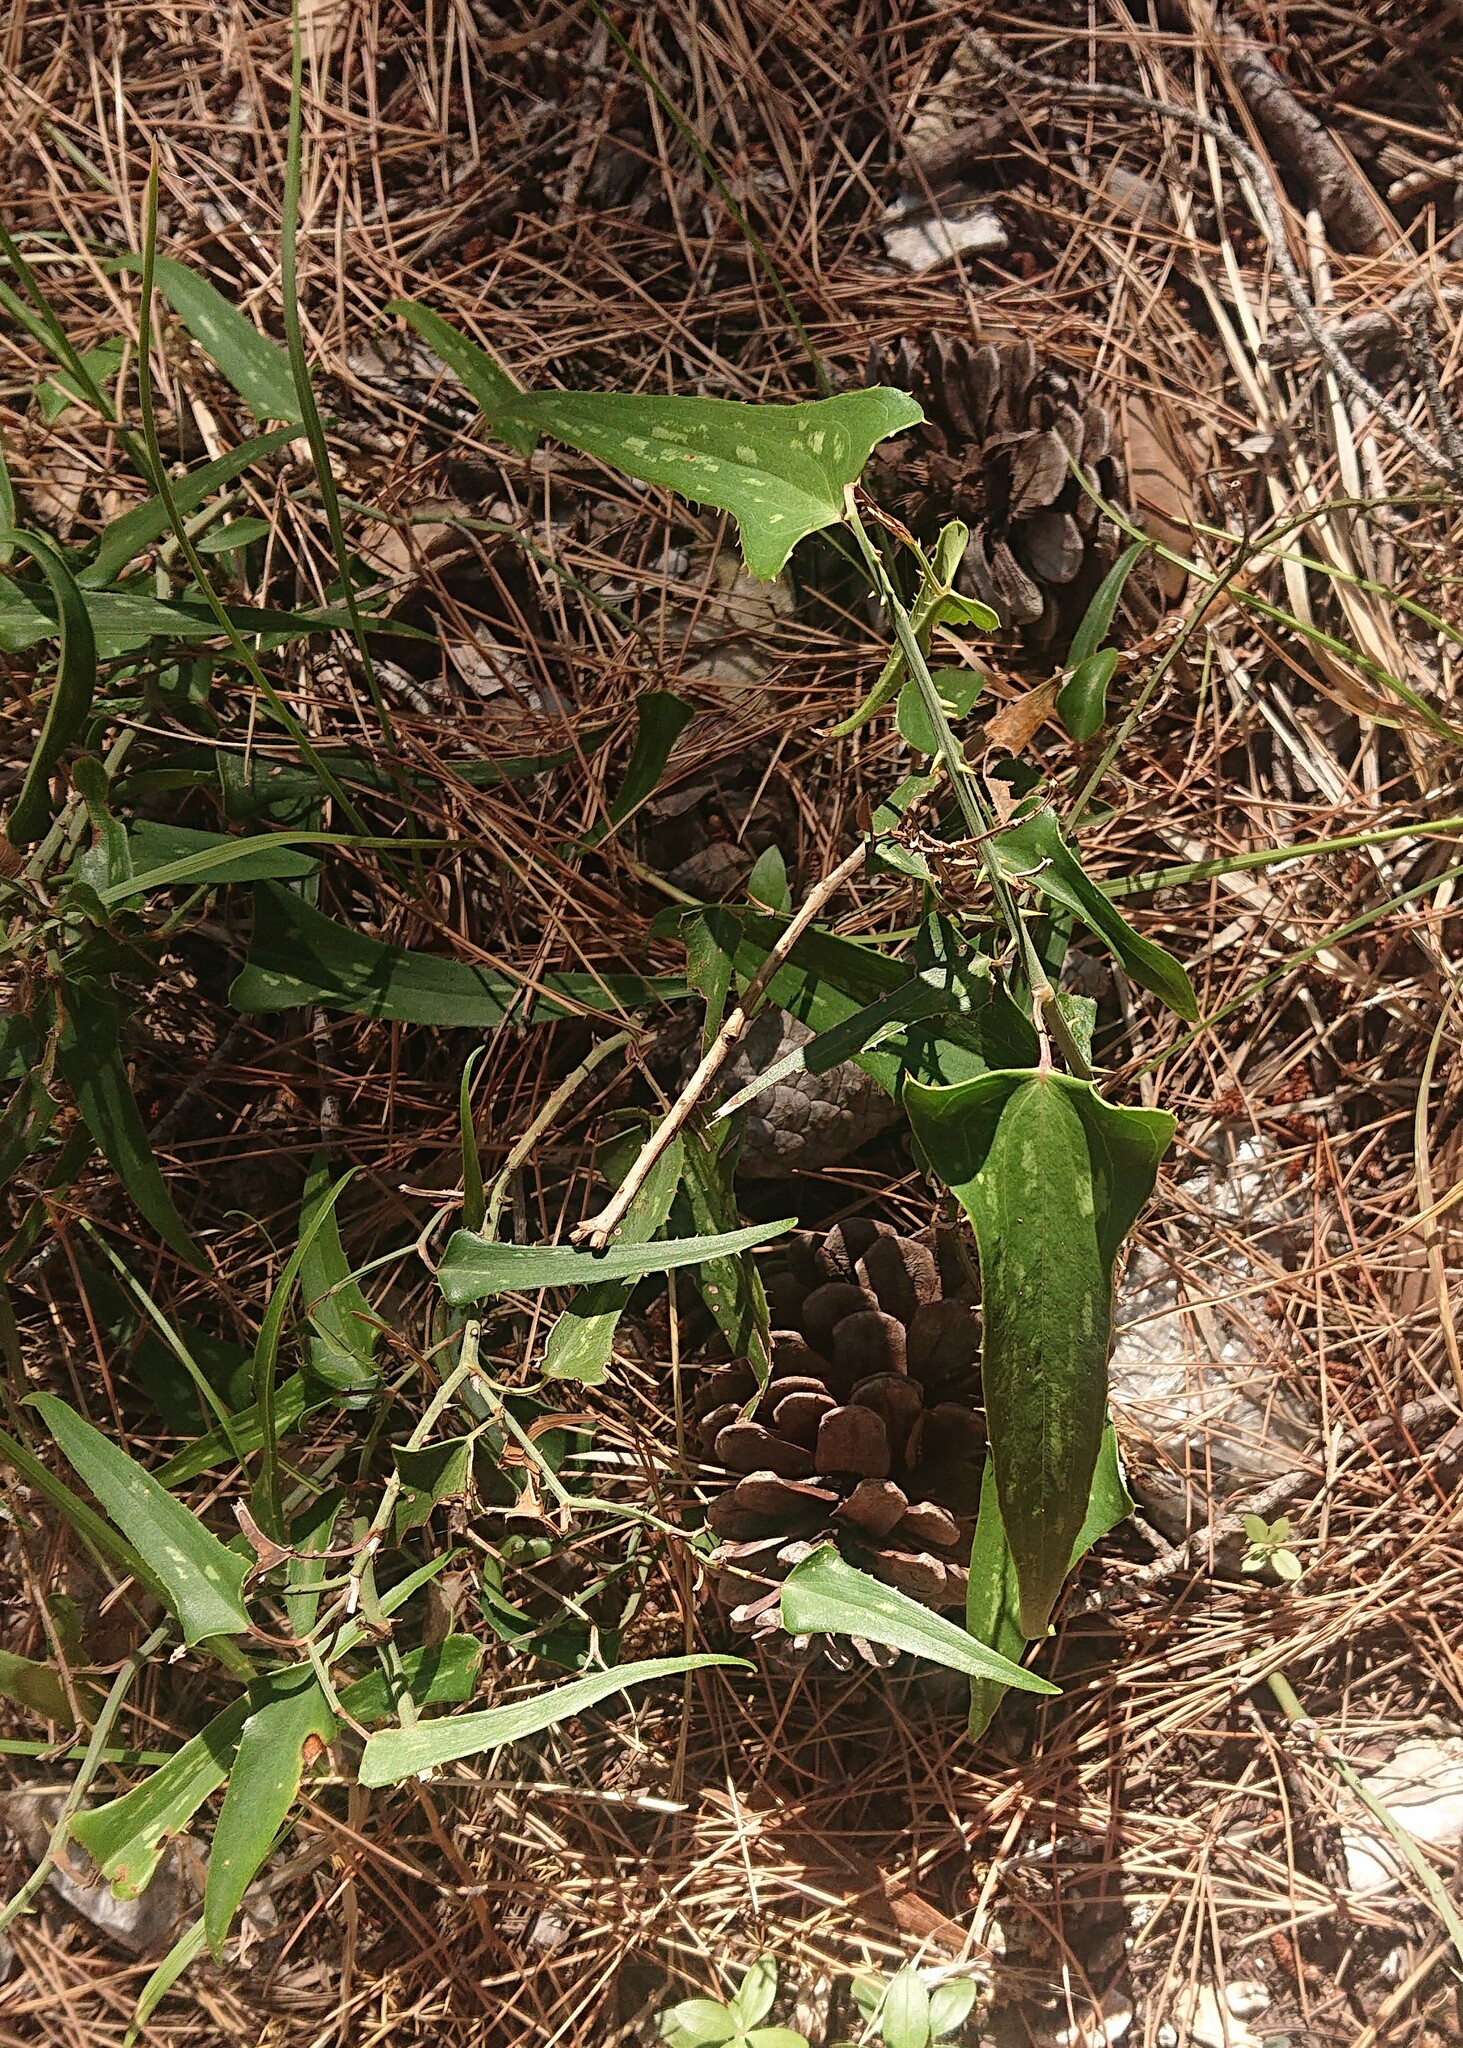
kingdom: Plantae
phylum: Tracheophyta
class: Liliopsida
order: Liliales
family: Smilacaceae
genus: Smilax
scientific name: Smilax aspera
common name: Common smilax
